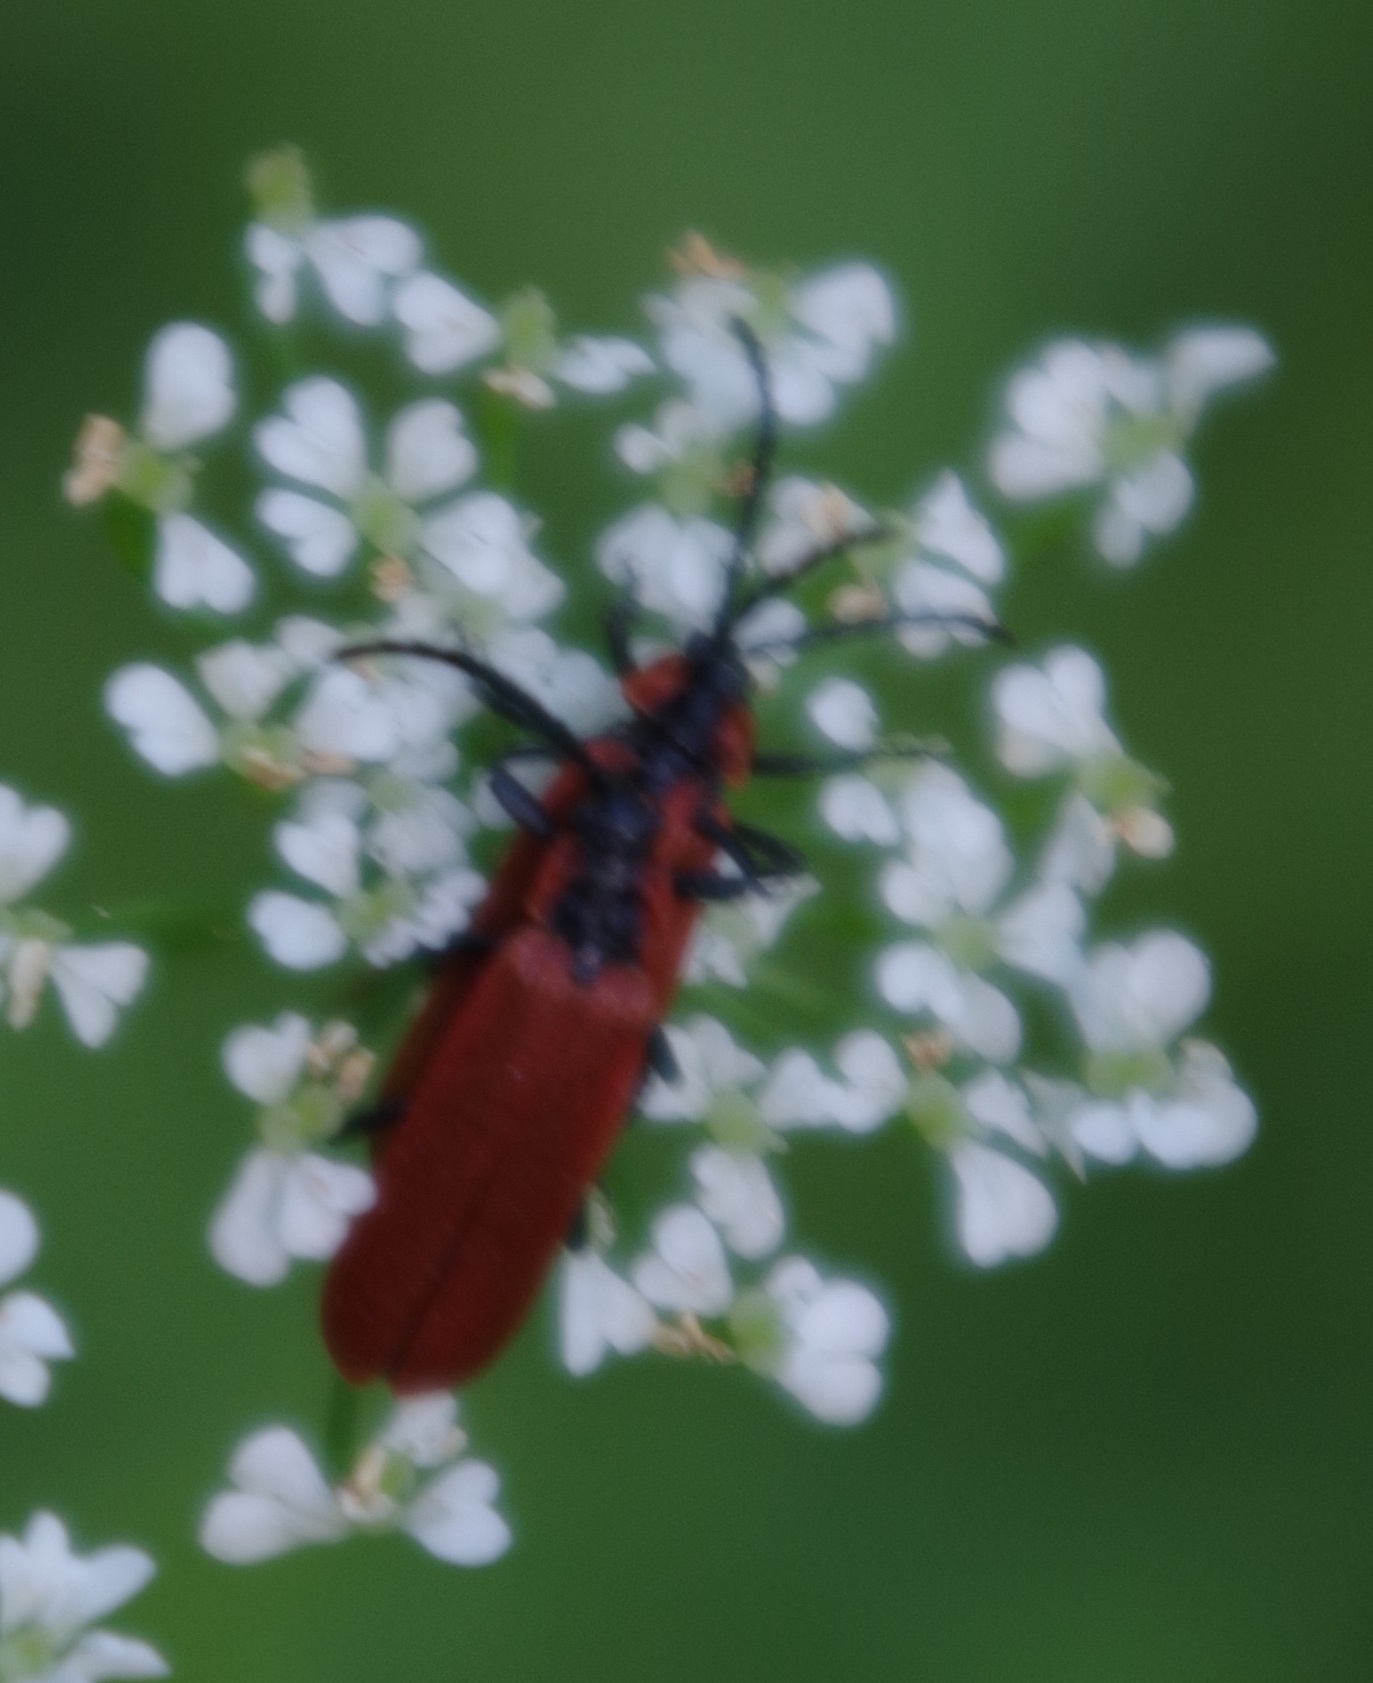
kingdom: Animalia
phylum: Arthropoda
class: Insecta
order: Coleoptera
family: Lycidae
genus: Lygistopterus
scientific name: Lygistopterus sanguineus
